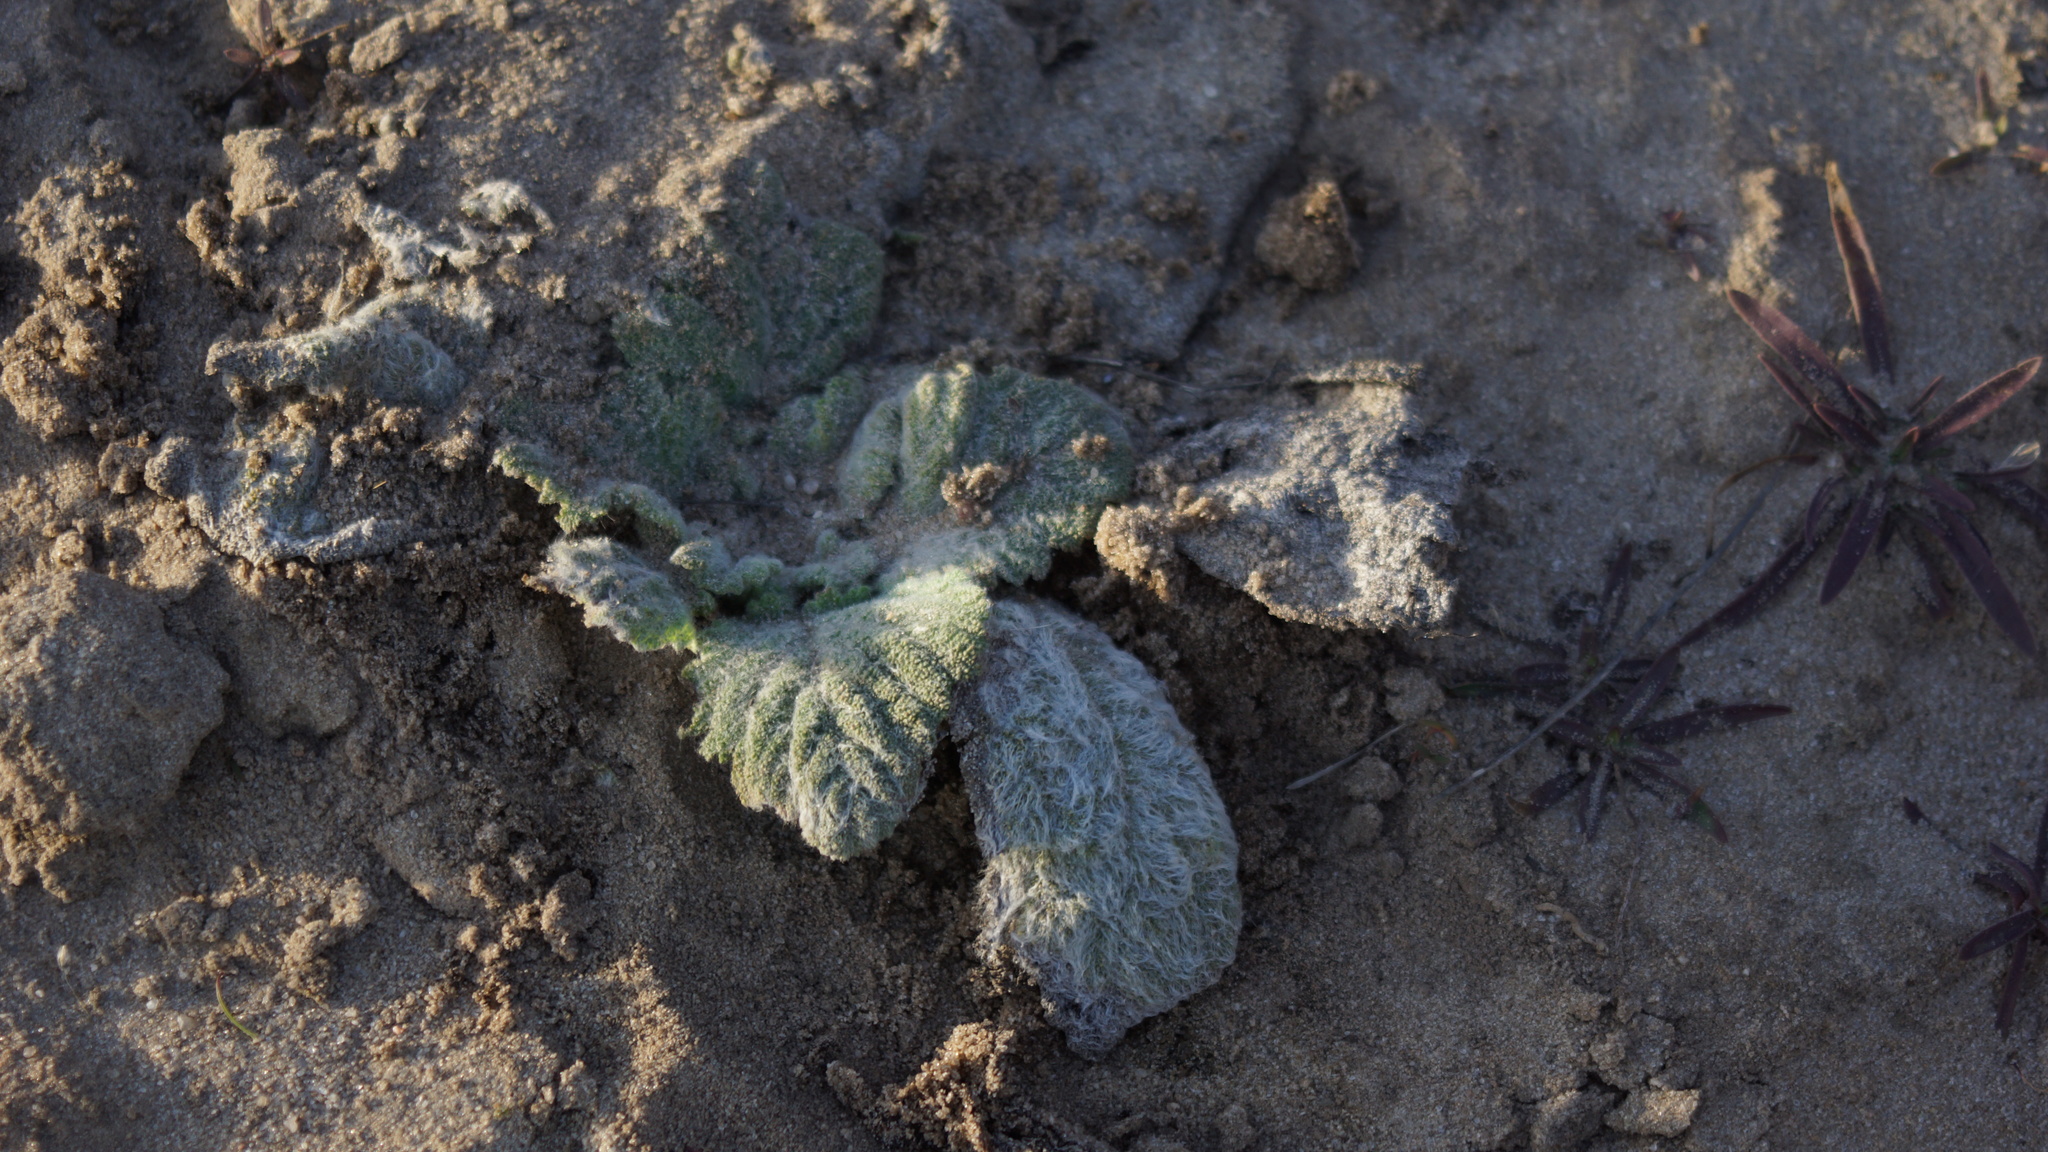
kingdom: Plantae
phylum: Tracheophyta
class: Magnoliopsida
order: Lamiales
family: Lamiaceae
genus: Salvia
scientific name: Salvia aethiopis
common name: Mediterranean sage
